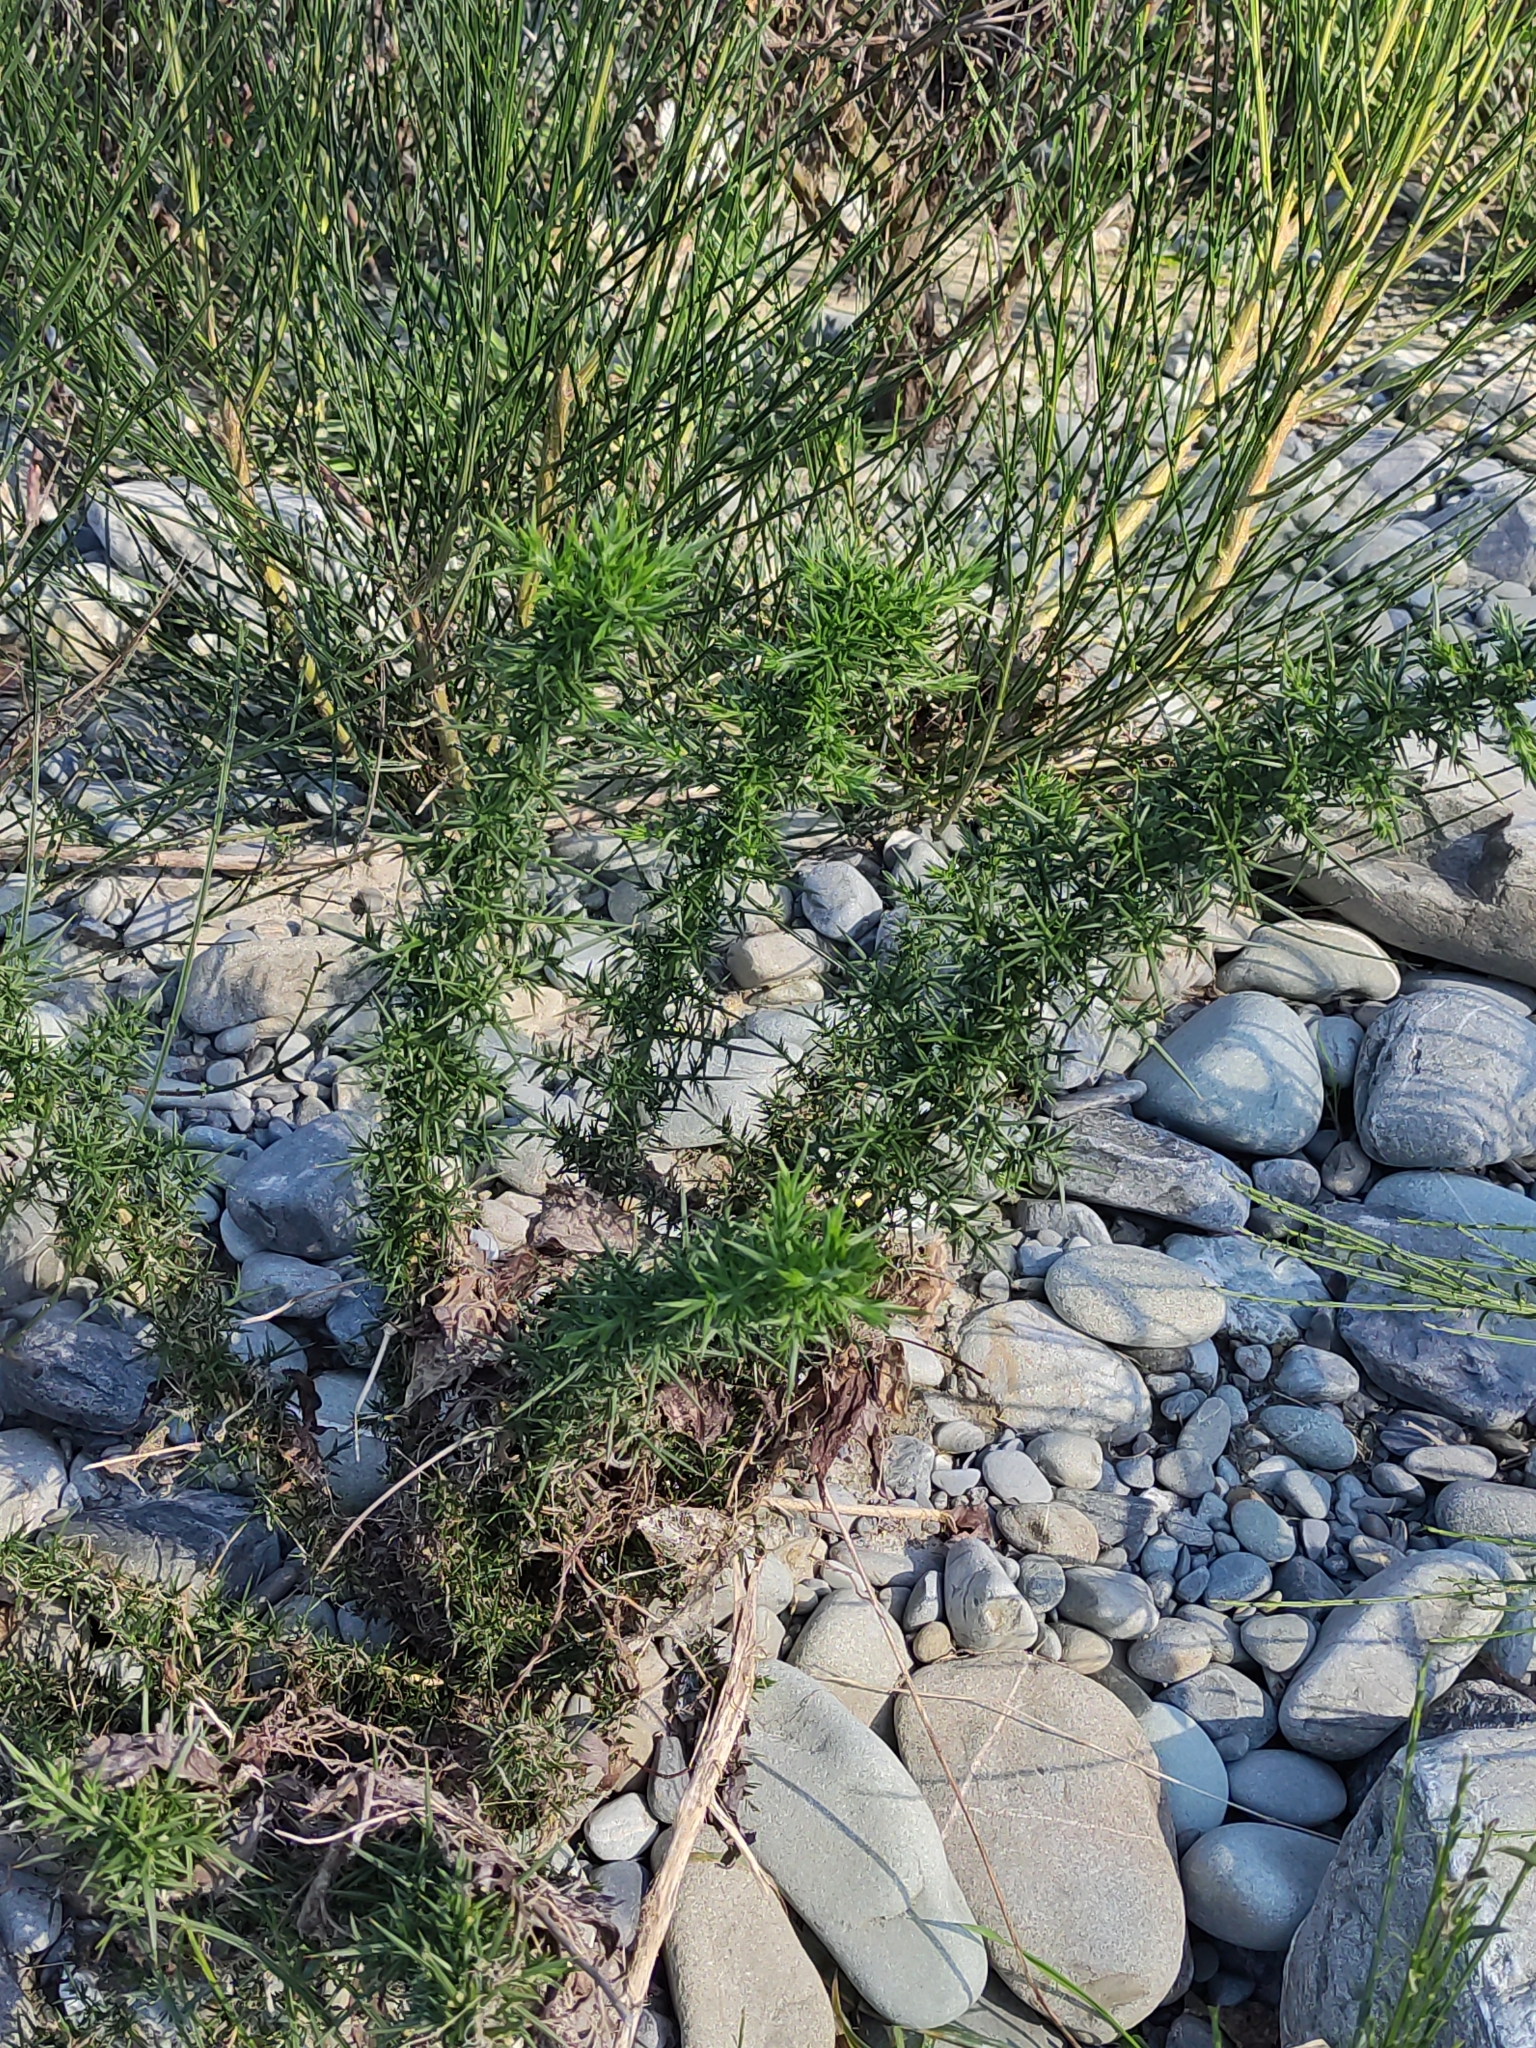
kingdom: Plantae
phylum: Tracheophyta
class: Magnoliopsida
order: Fabales
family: Fabaceae
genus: Ulex
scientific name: Ulex europaeus
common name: Common gorse
